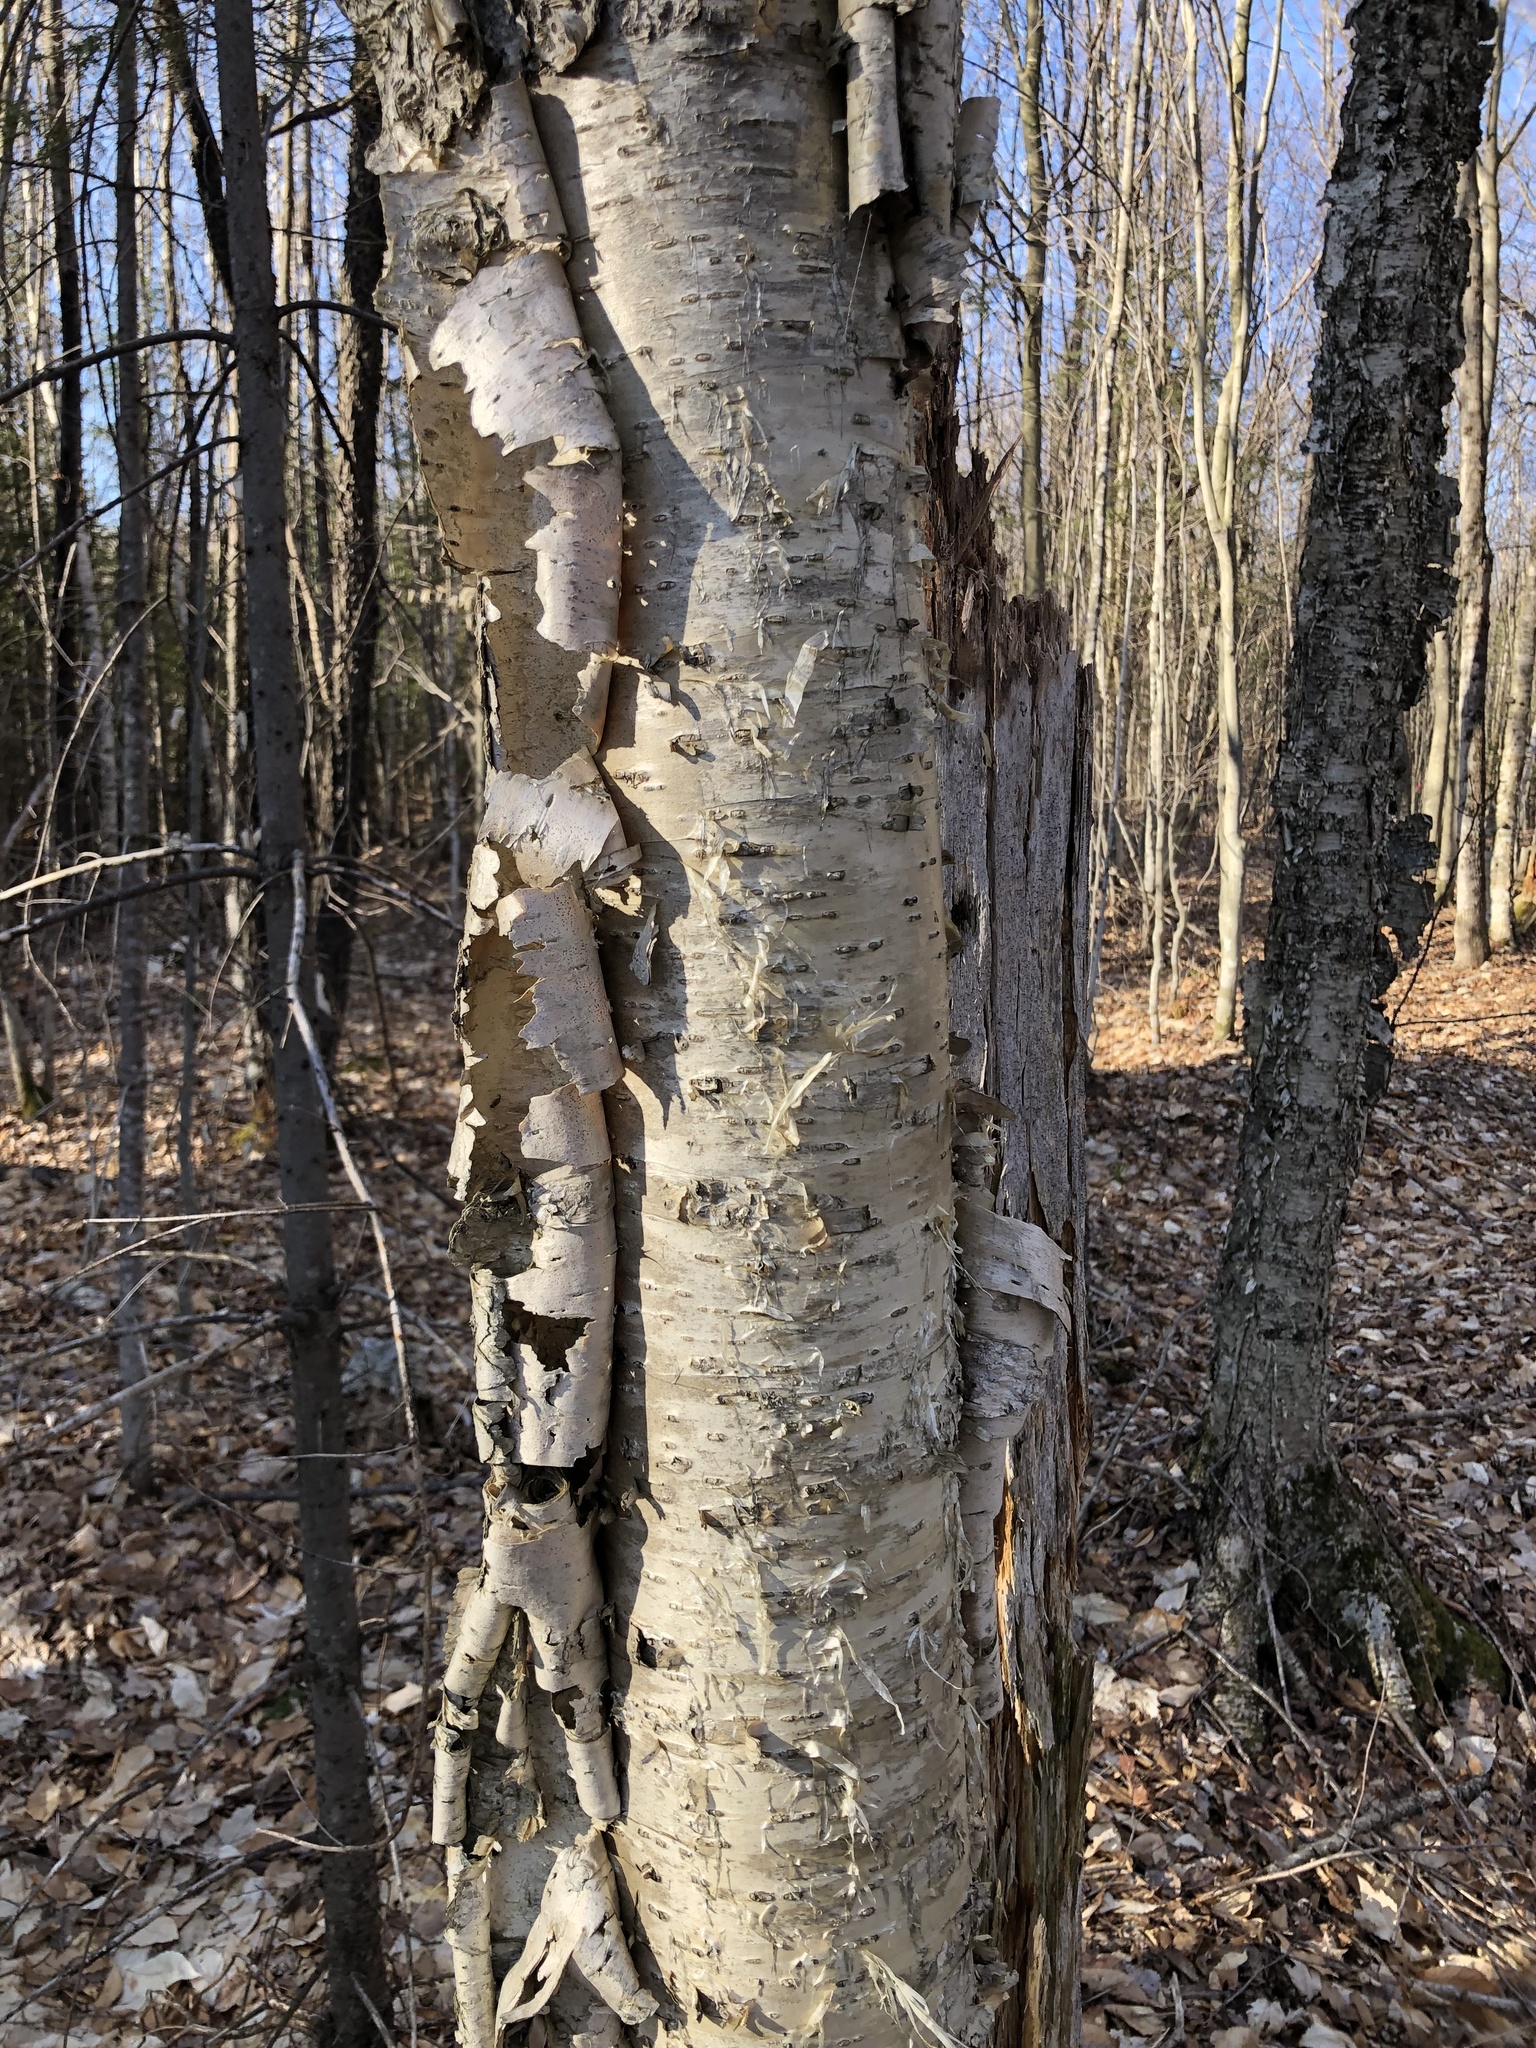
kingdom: Plantae
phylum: Tracheophyta
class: Magnoliopsida
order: Fagales
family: Betulaceae
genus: Betula
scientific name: Betula alleghaniensis
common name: Yellow birch
